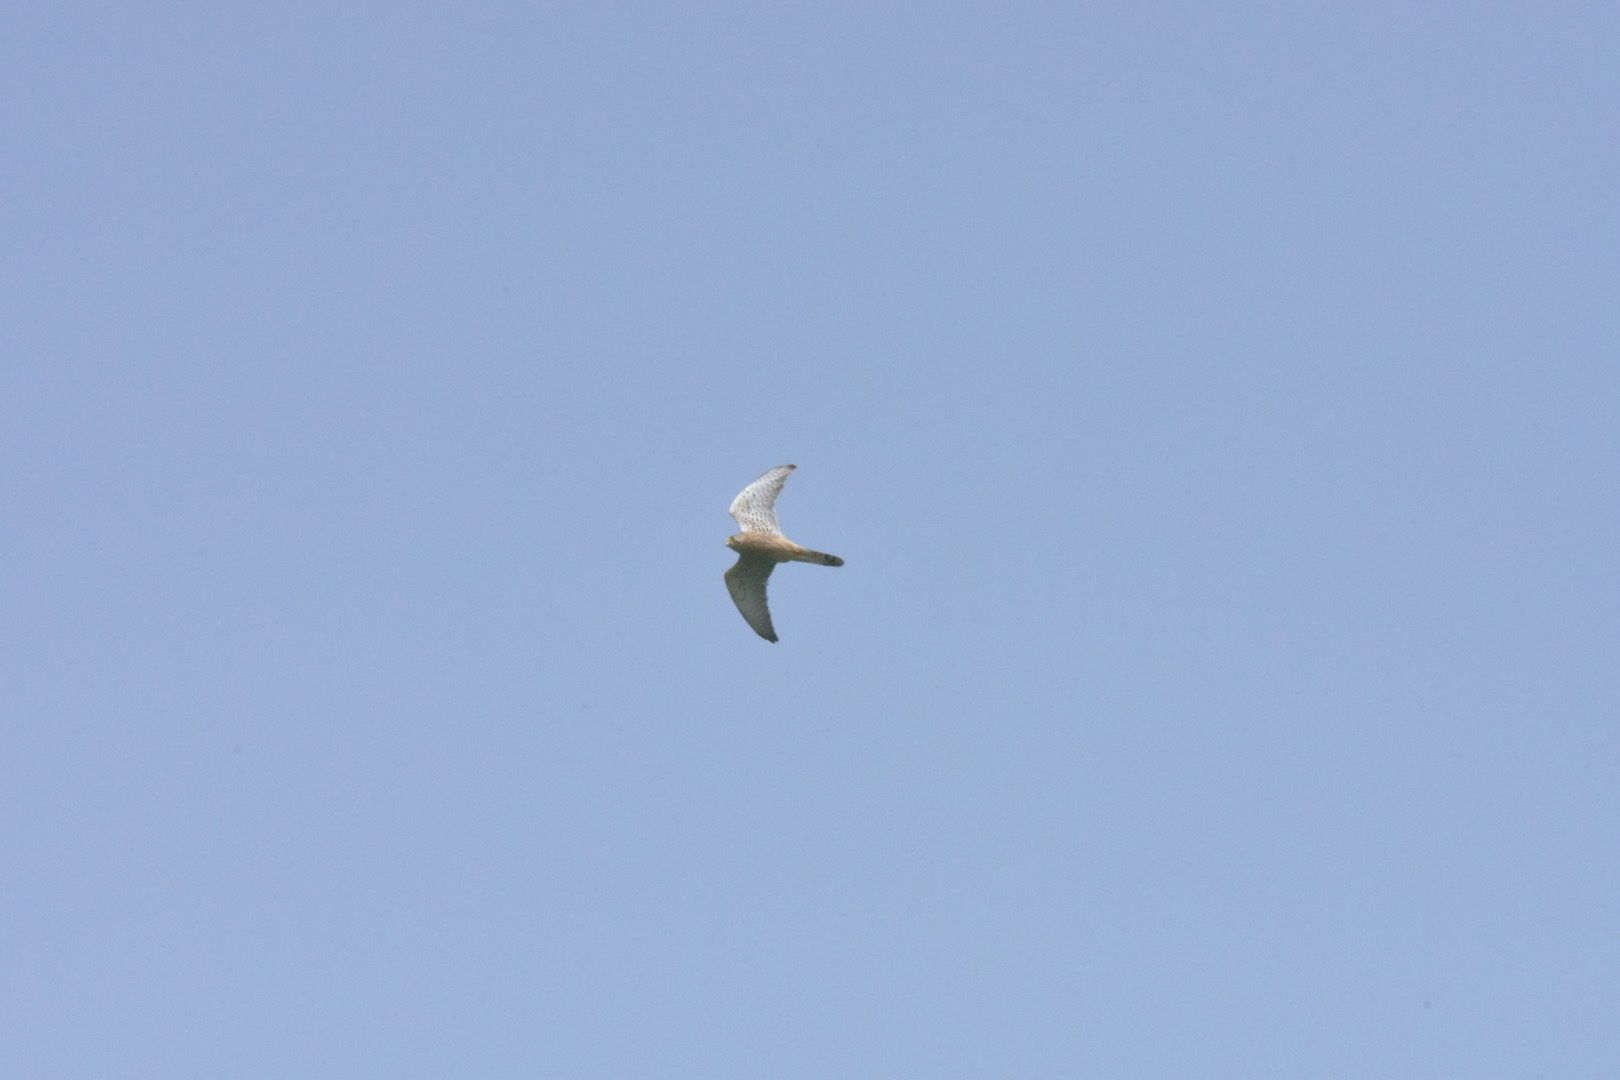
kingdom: Animalia
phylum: Chordata
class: Aves
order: Falconiformes
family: Falconidae
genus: Falco
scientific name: Falco tinnunculus
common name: Common kestrel
